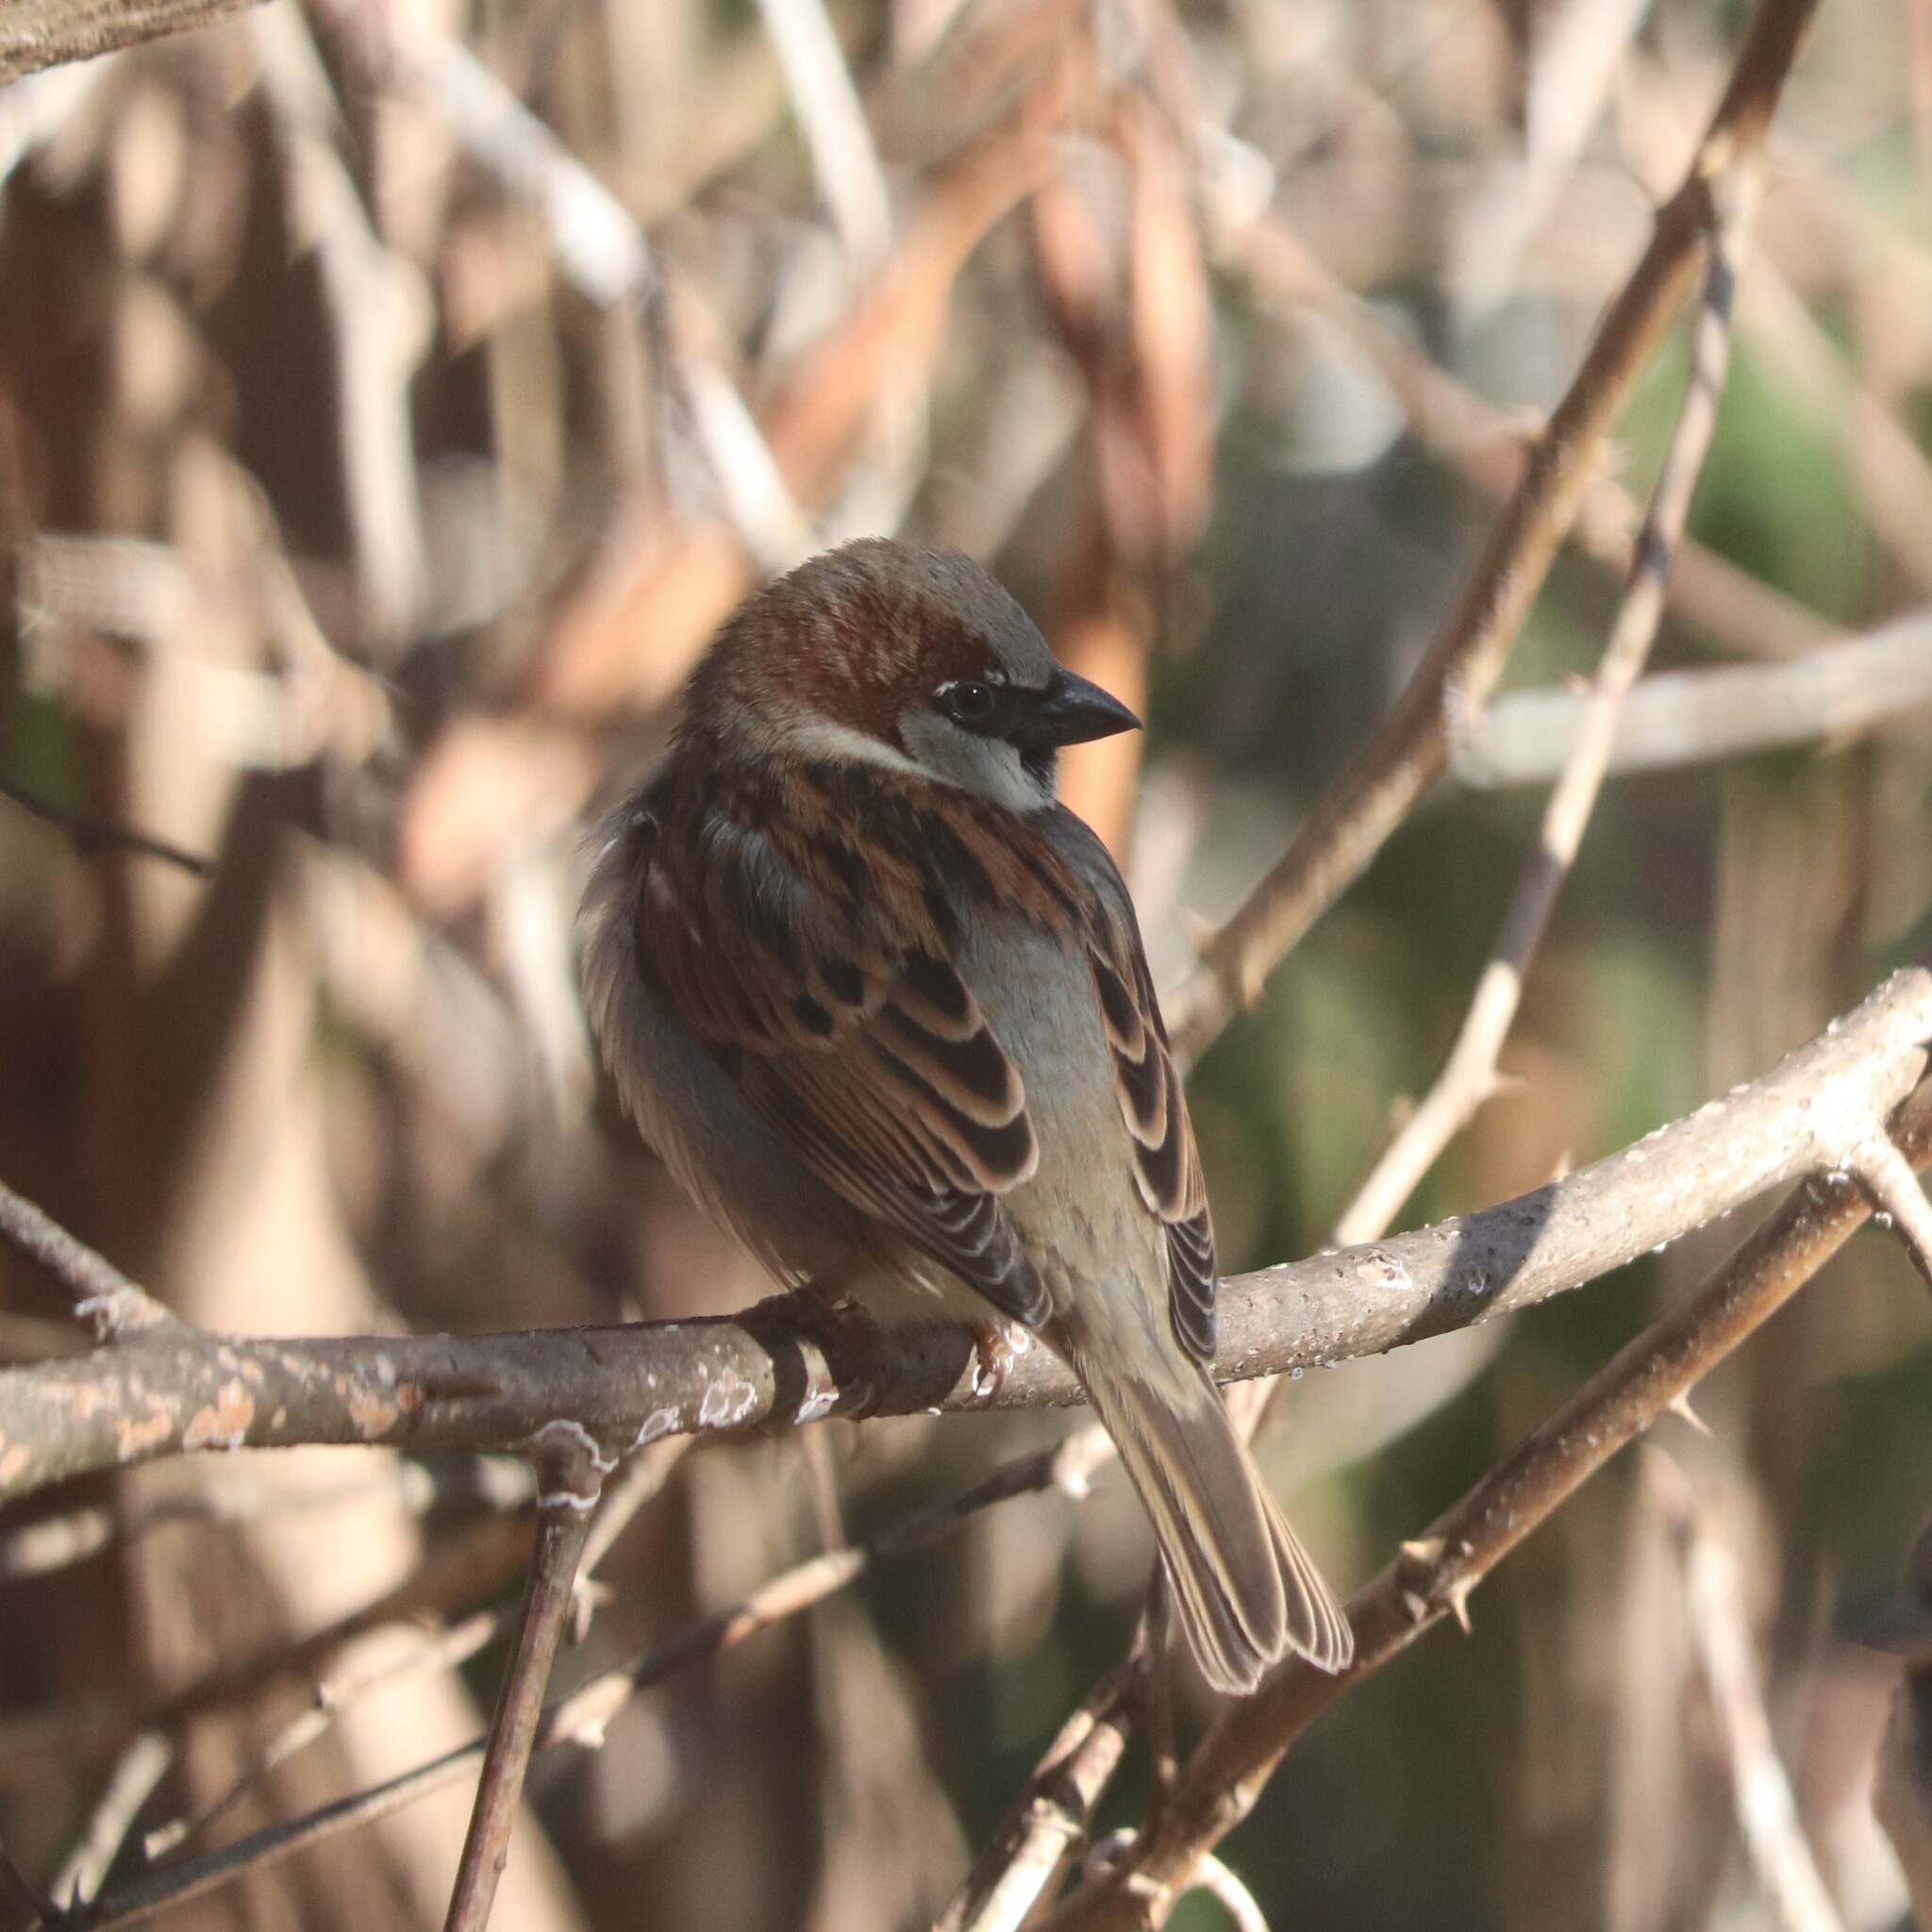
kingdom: Animalia
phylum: Chordata
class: Aves
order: Passeriformes
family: Passeridae
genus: Passer
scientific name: Passer domesticus
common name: House sparrow
